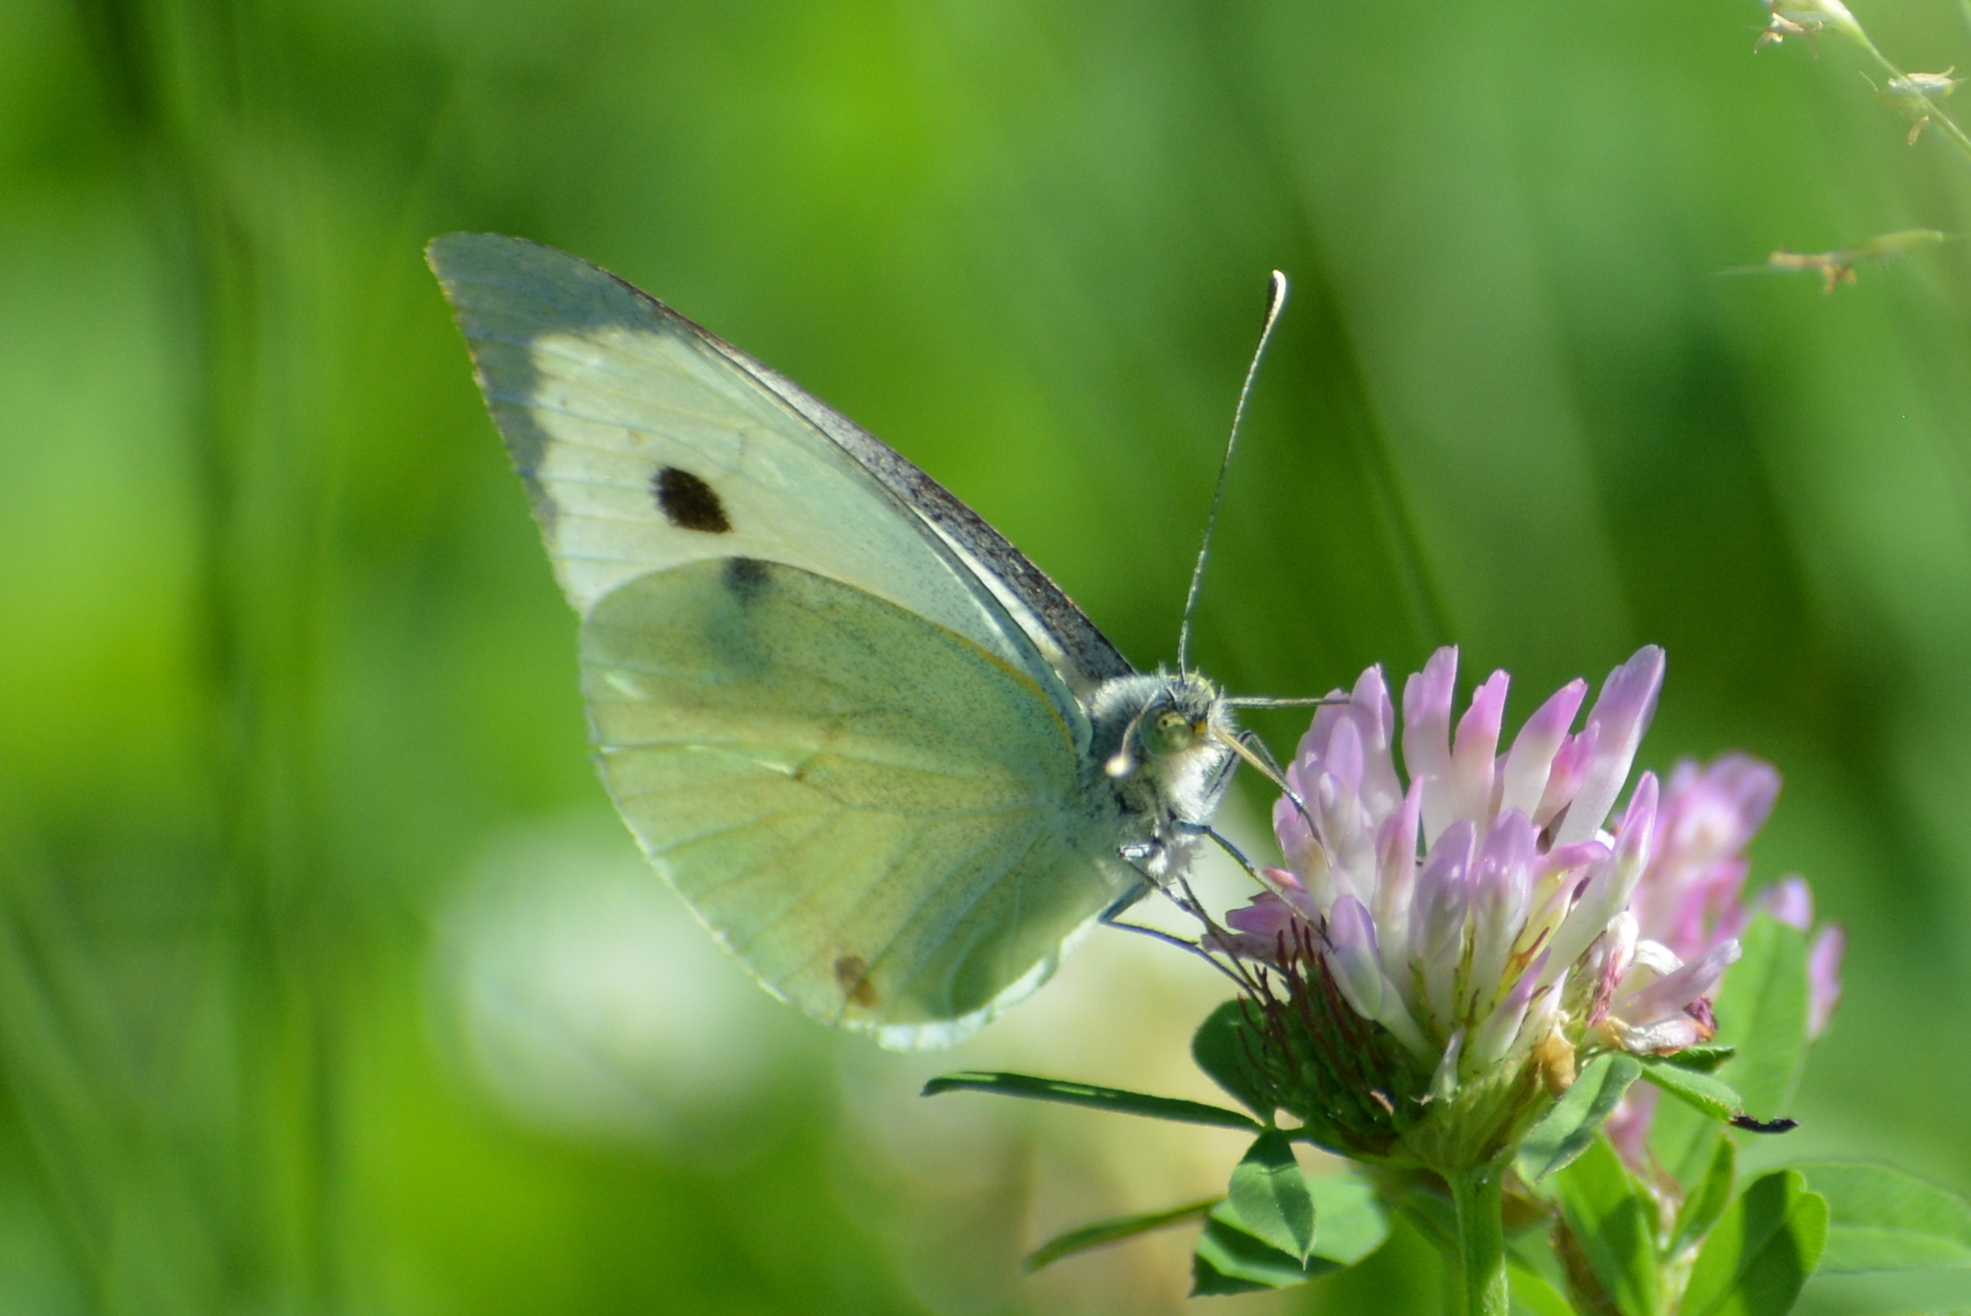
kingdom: Animalia
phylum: Arthropoda
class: Insecta
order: Lepidoptera
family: Pieridae
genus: Pieris
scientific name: Pieris brassicae
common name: Large white
